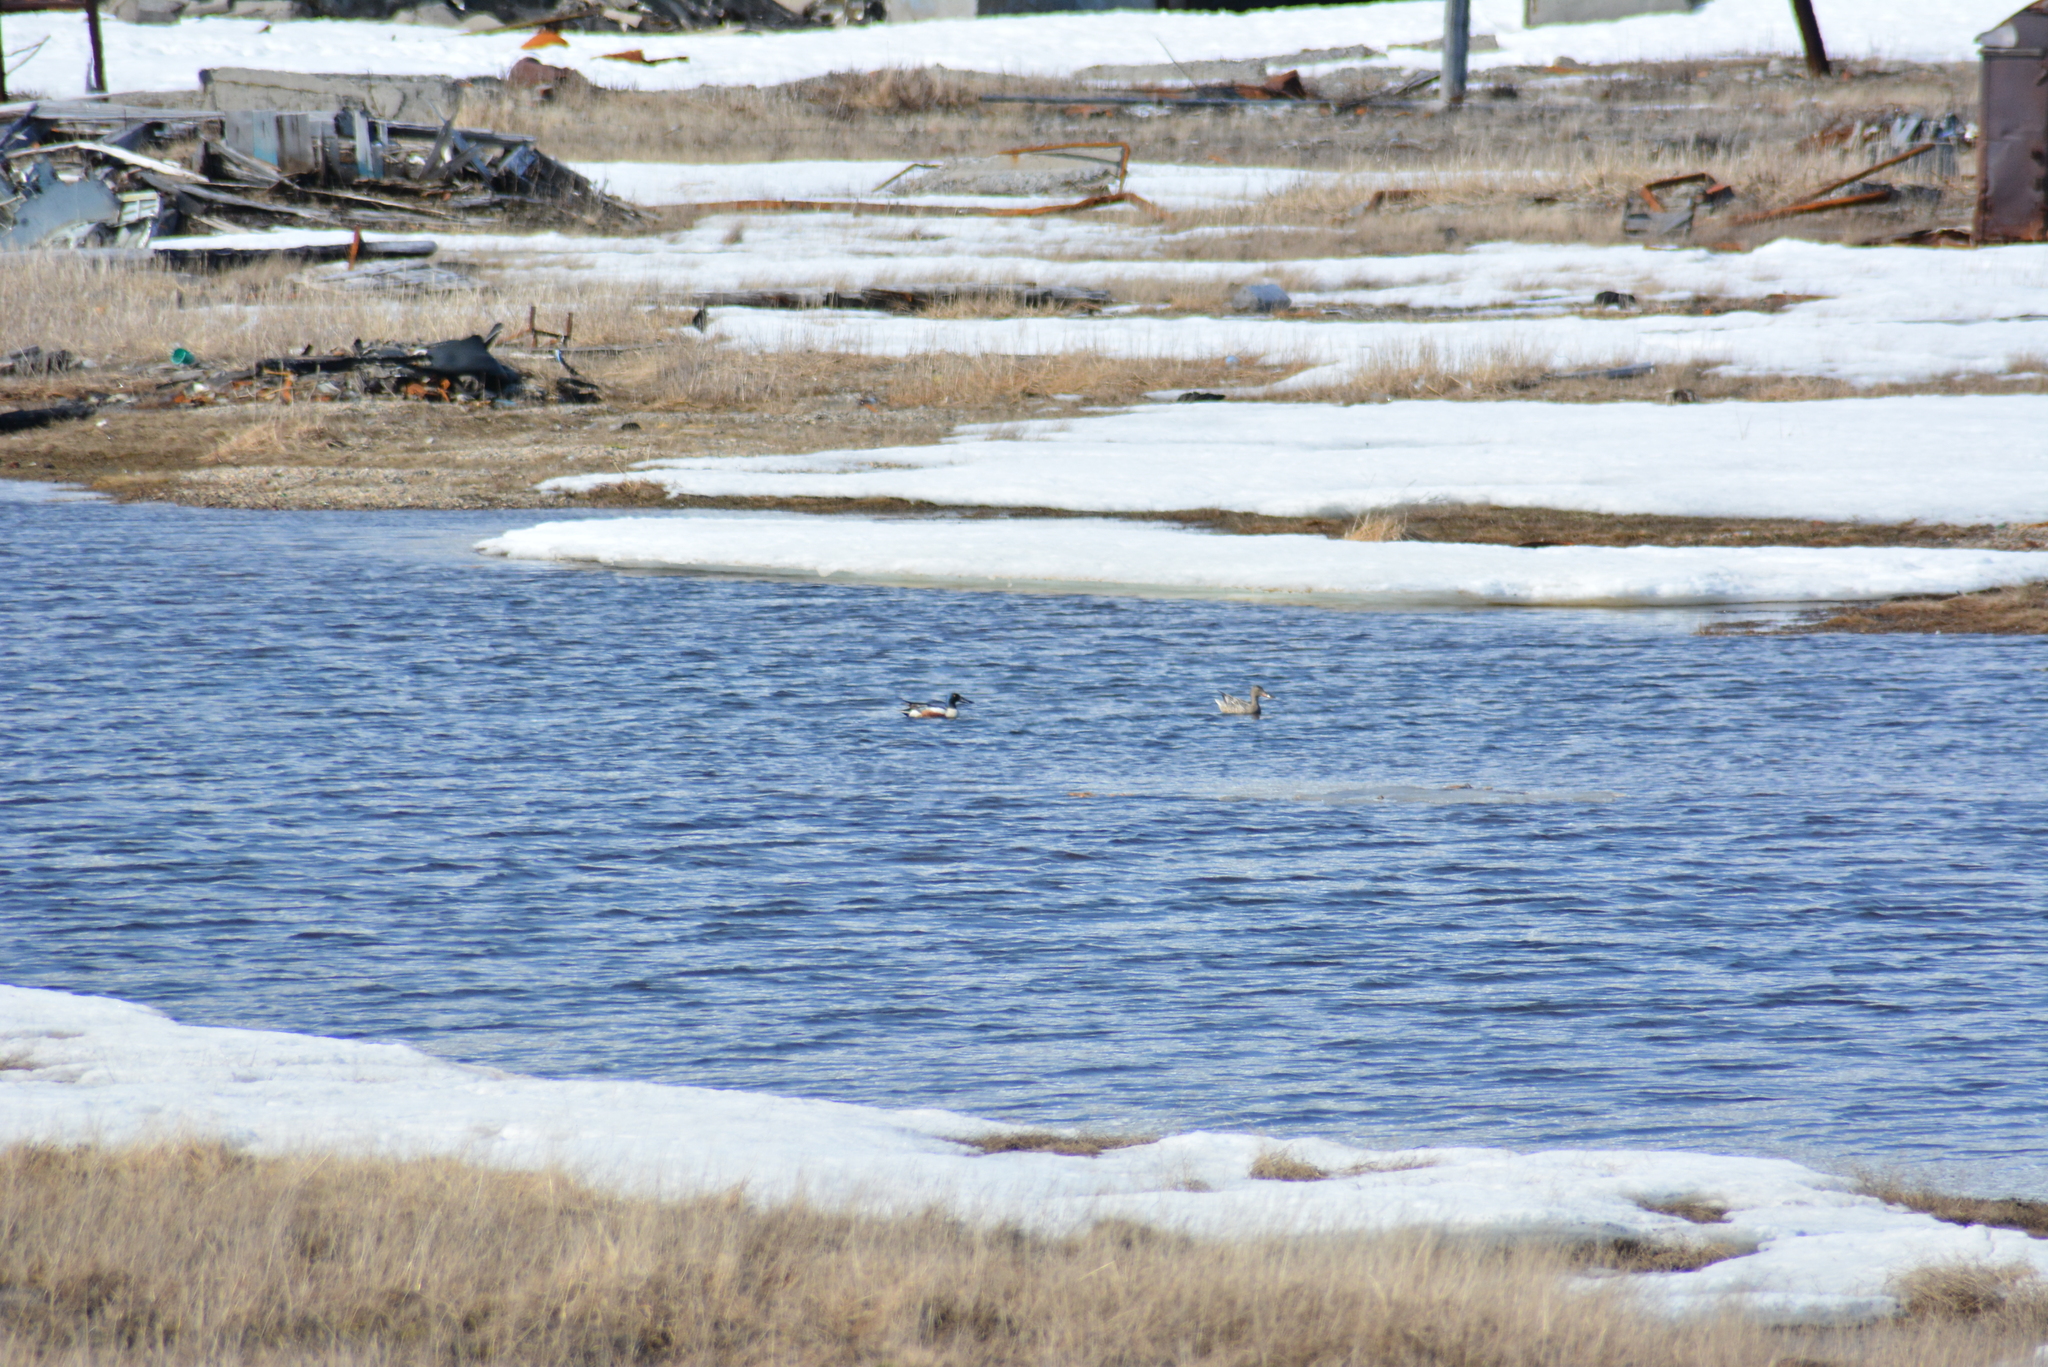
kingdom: Animalia
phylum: Chordata
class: Aves
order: Anseriformes
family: Anatidae
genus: Spatula
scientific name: Spatula clypeata
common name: Northern shoveler
